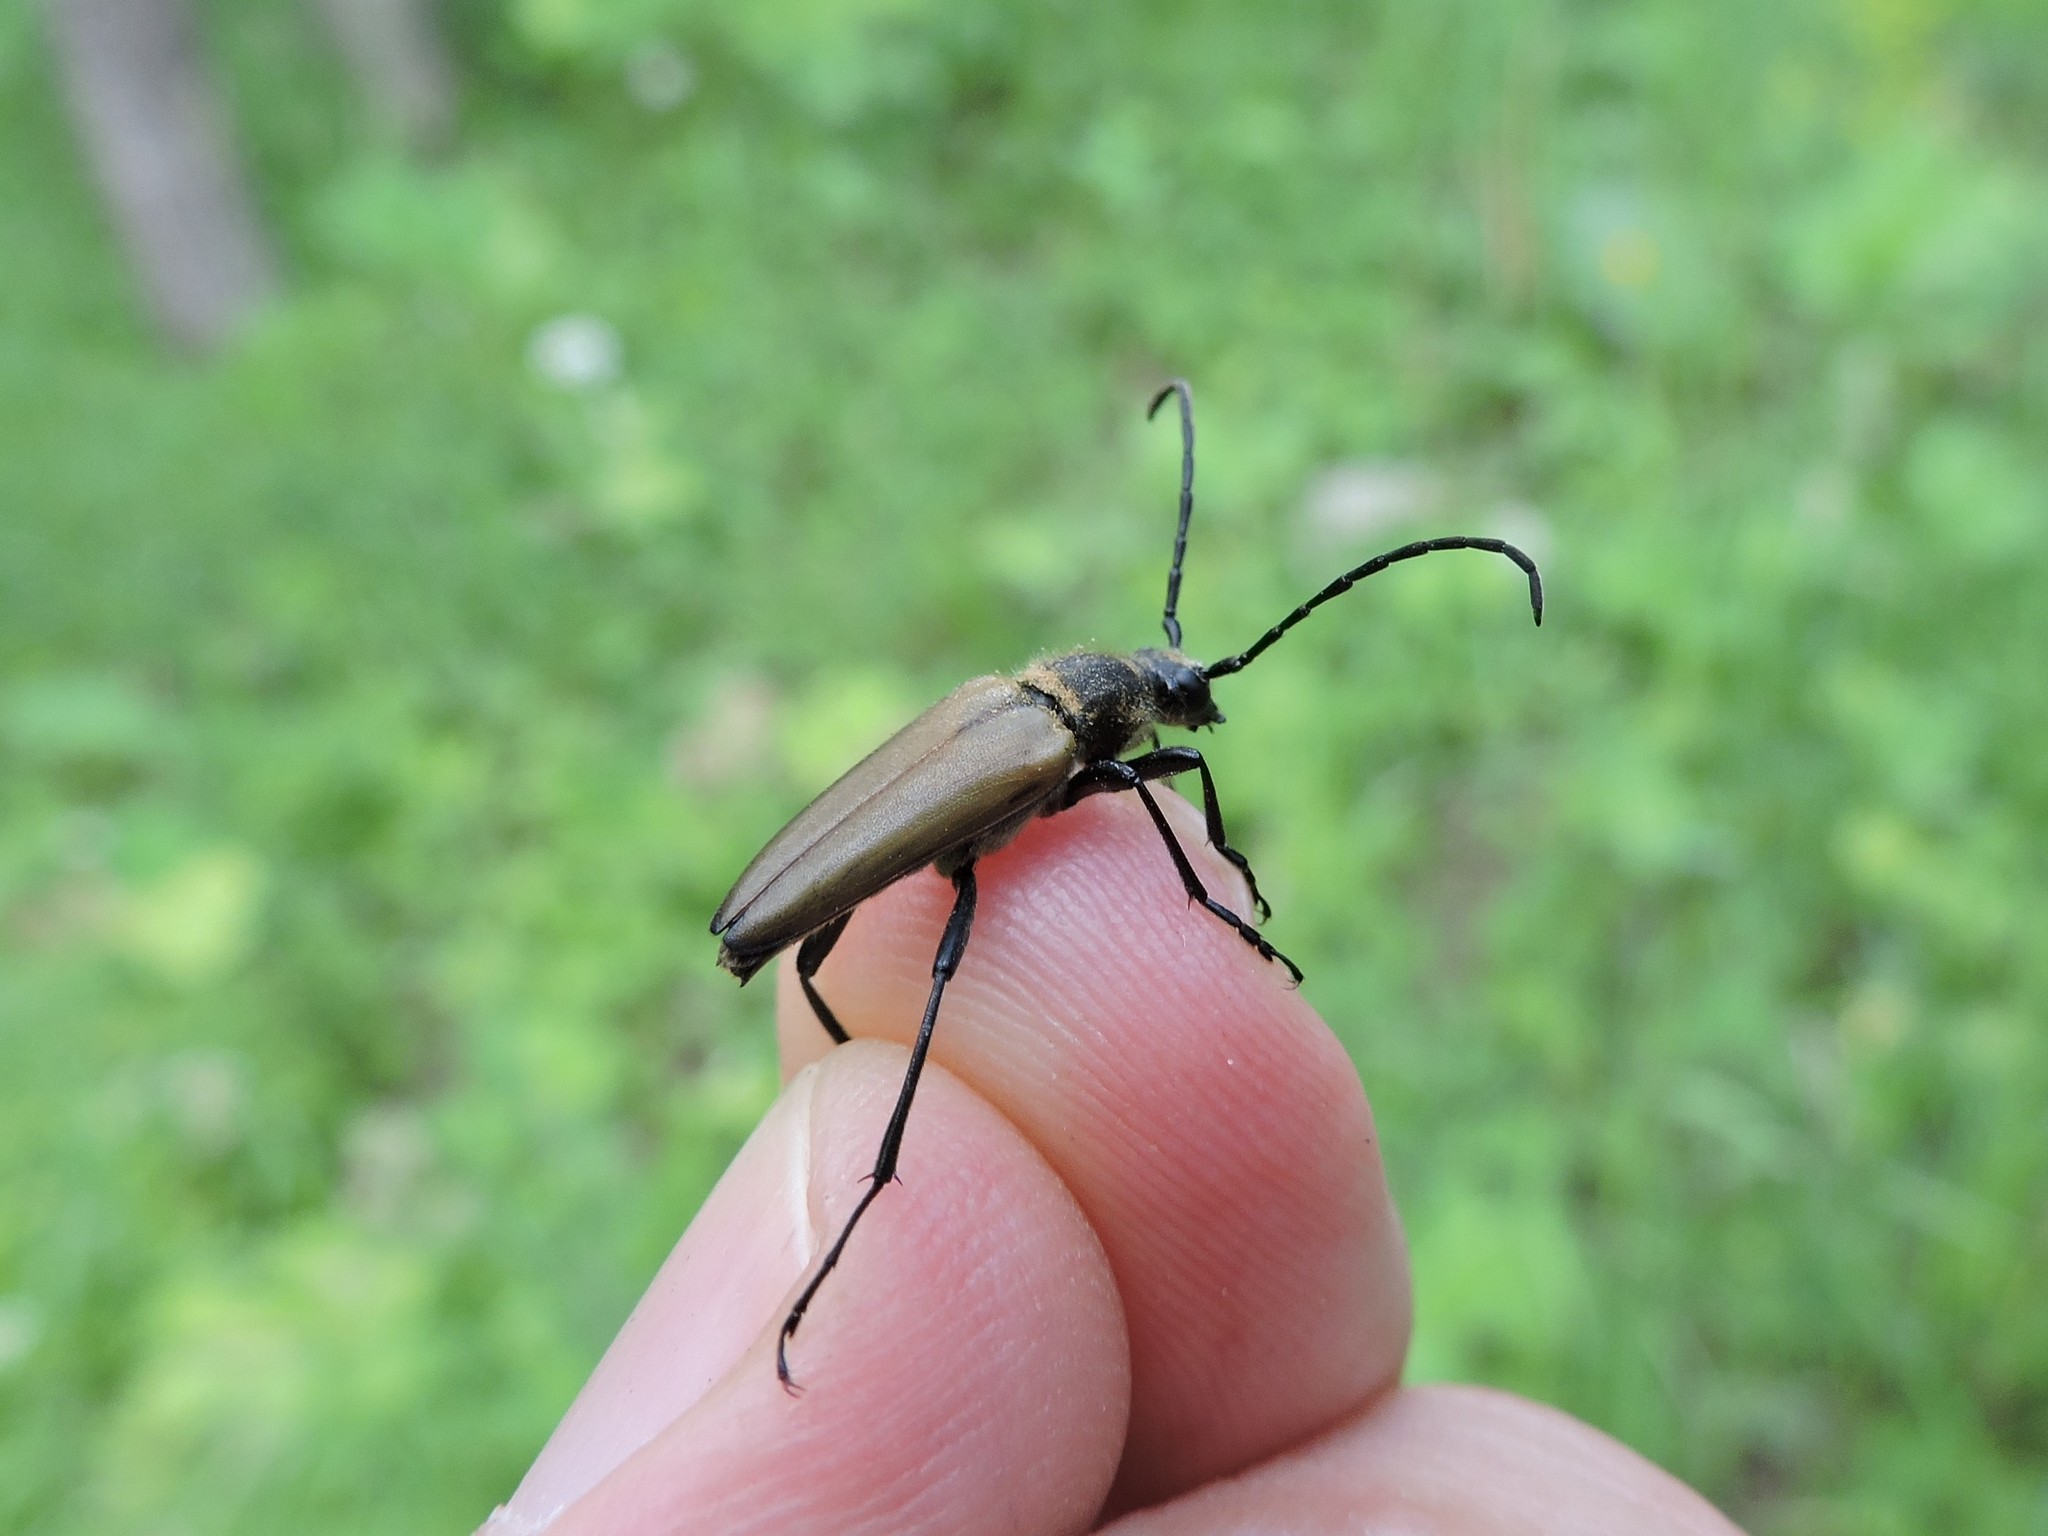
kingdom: Animalia
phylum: Arthropoda
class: Insecta
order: Coleoptera
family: Cerambycidae
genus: Lepturalia
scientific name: Lepturalia nigripes
